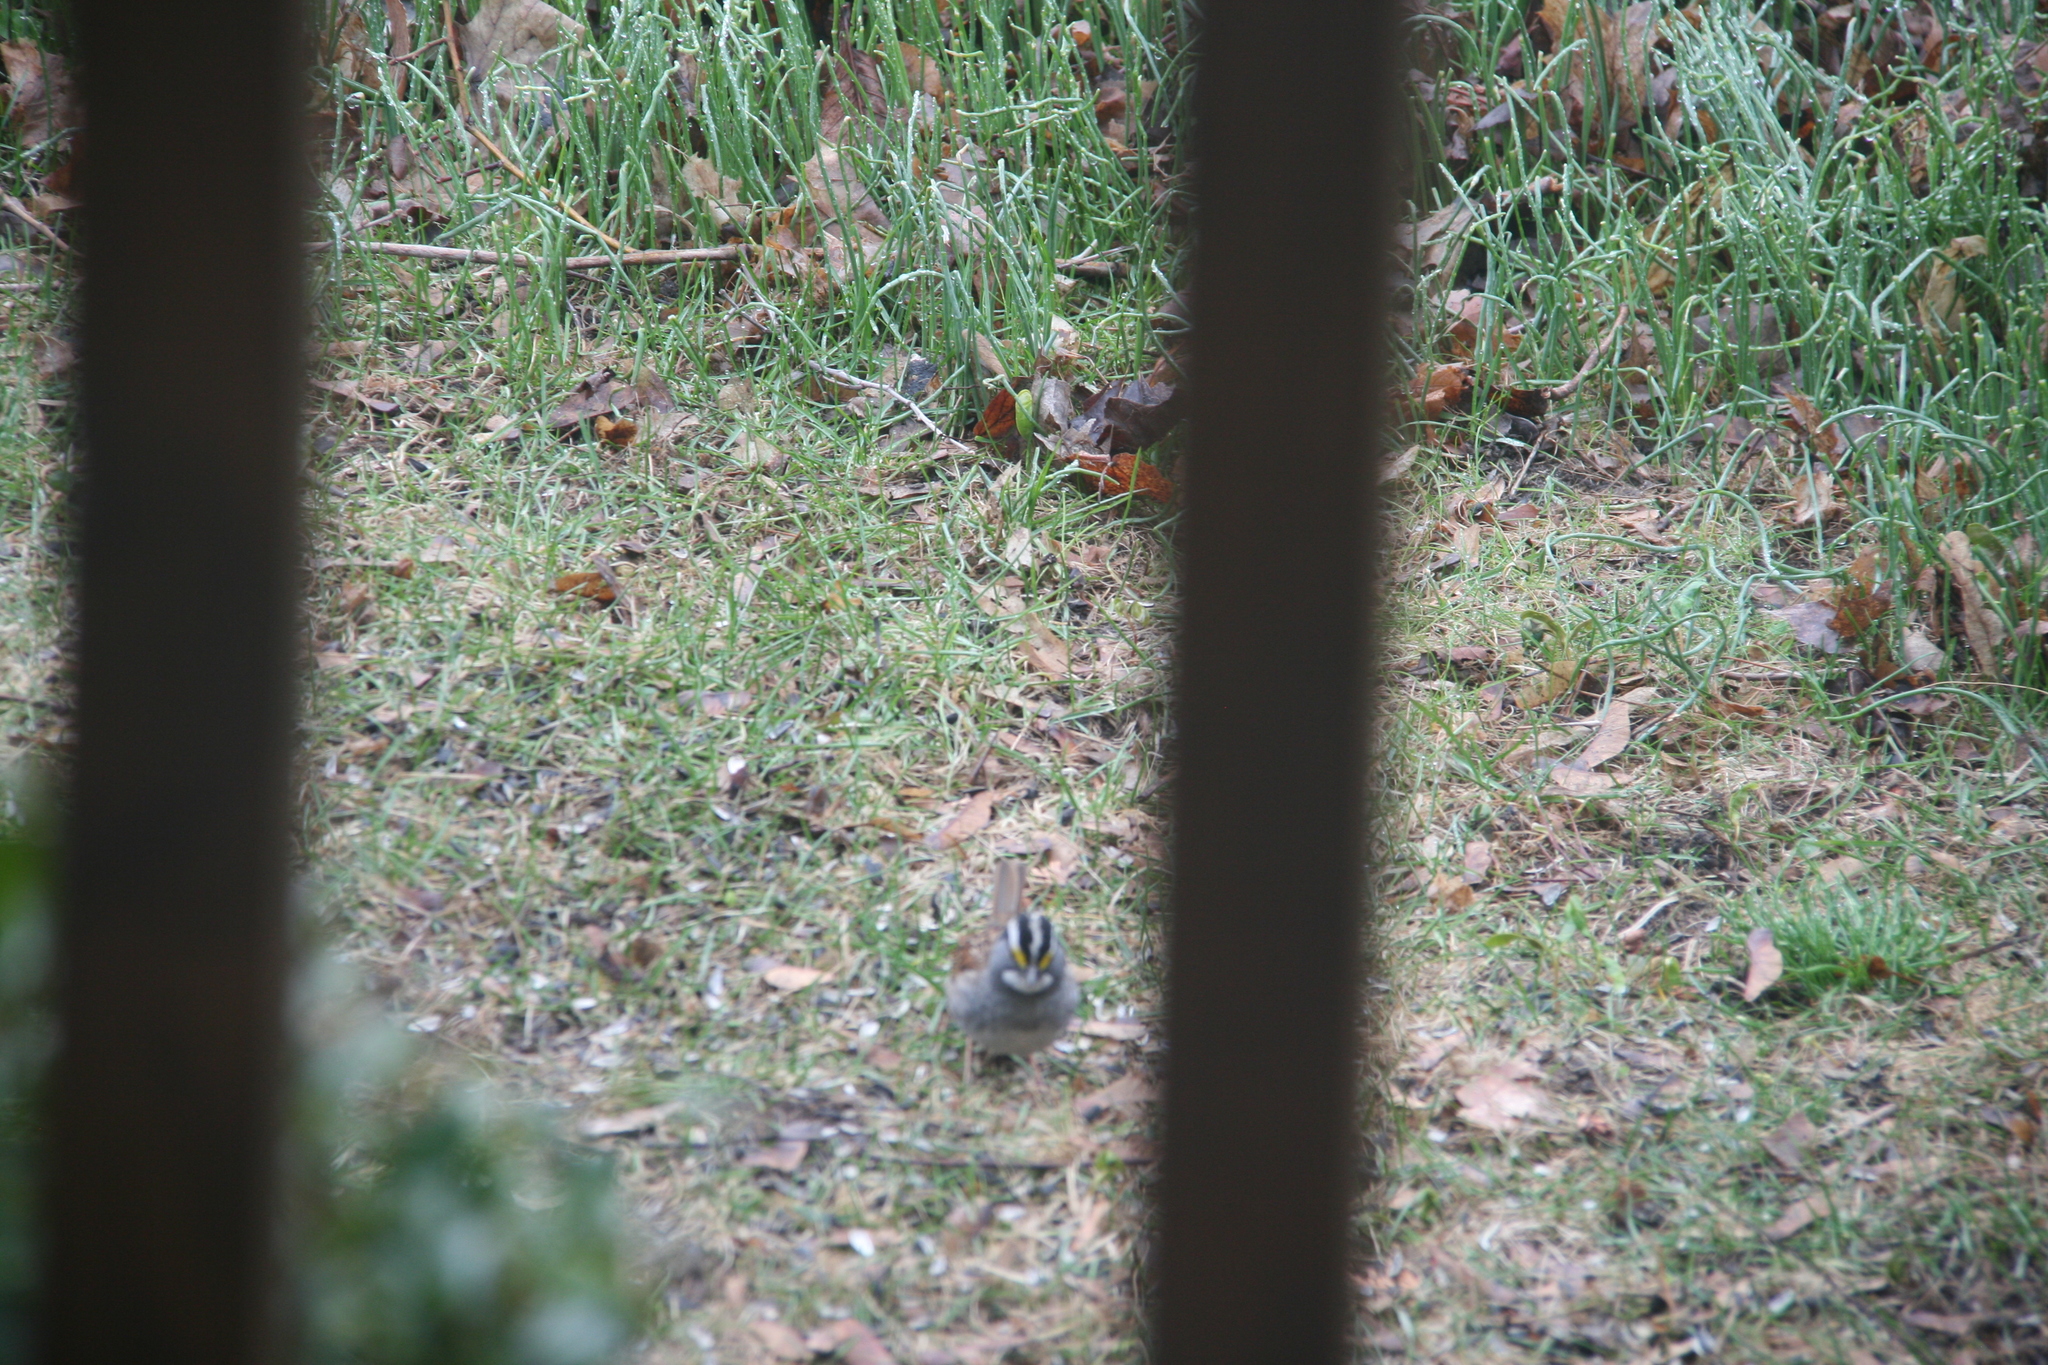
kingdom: Animalia
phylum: Chordata
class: Aves
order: Passeriformes
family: Passerellidae
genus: Zonotrichia
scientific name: Zonotrichia albicollis
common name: White-throated sparrow
